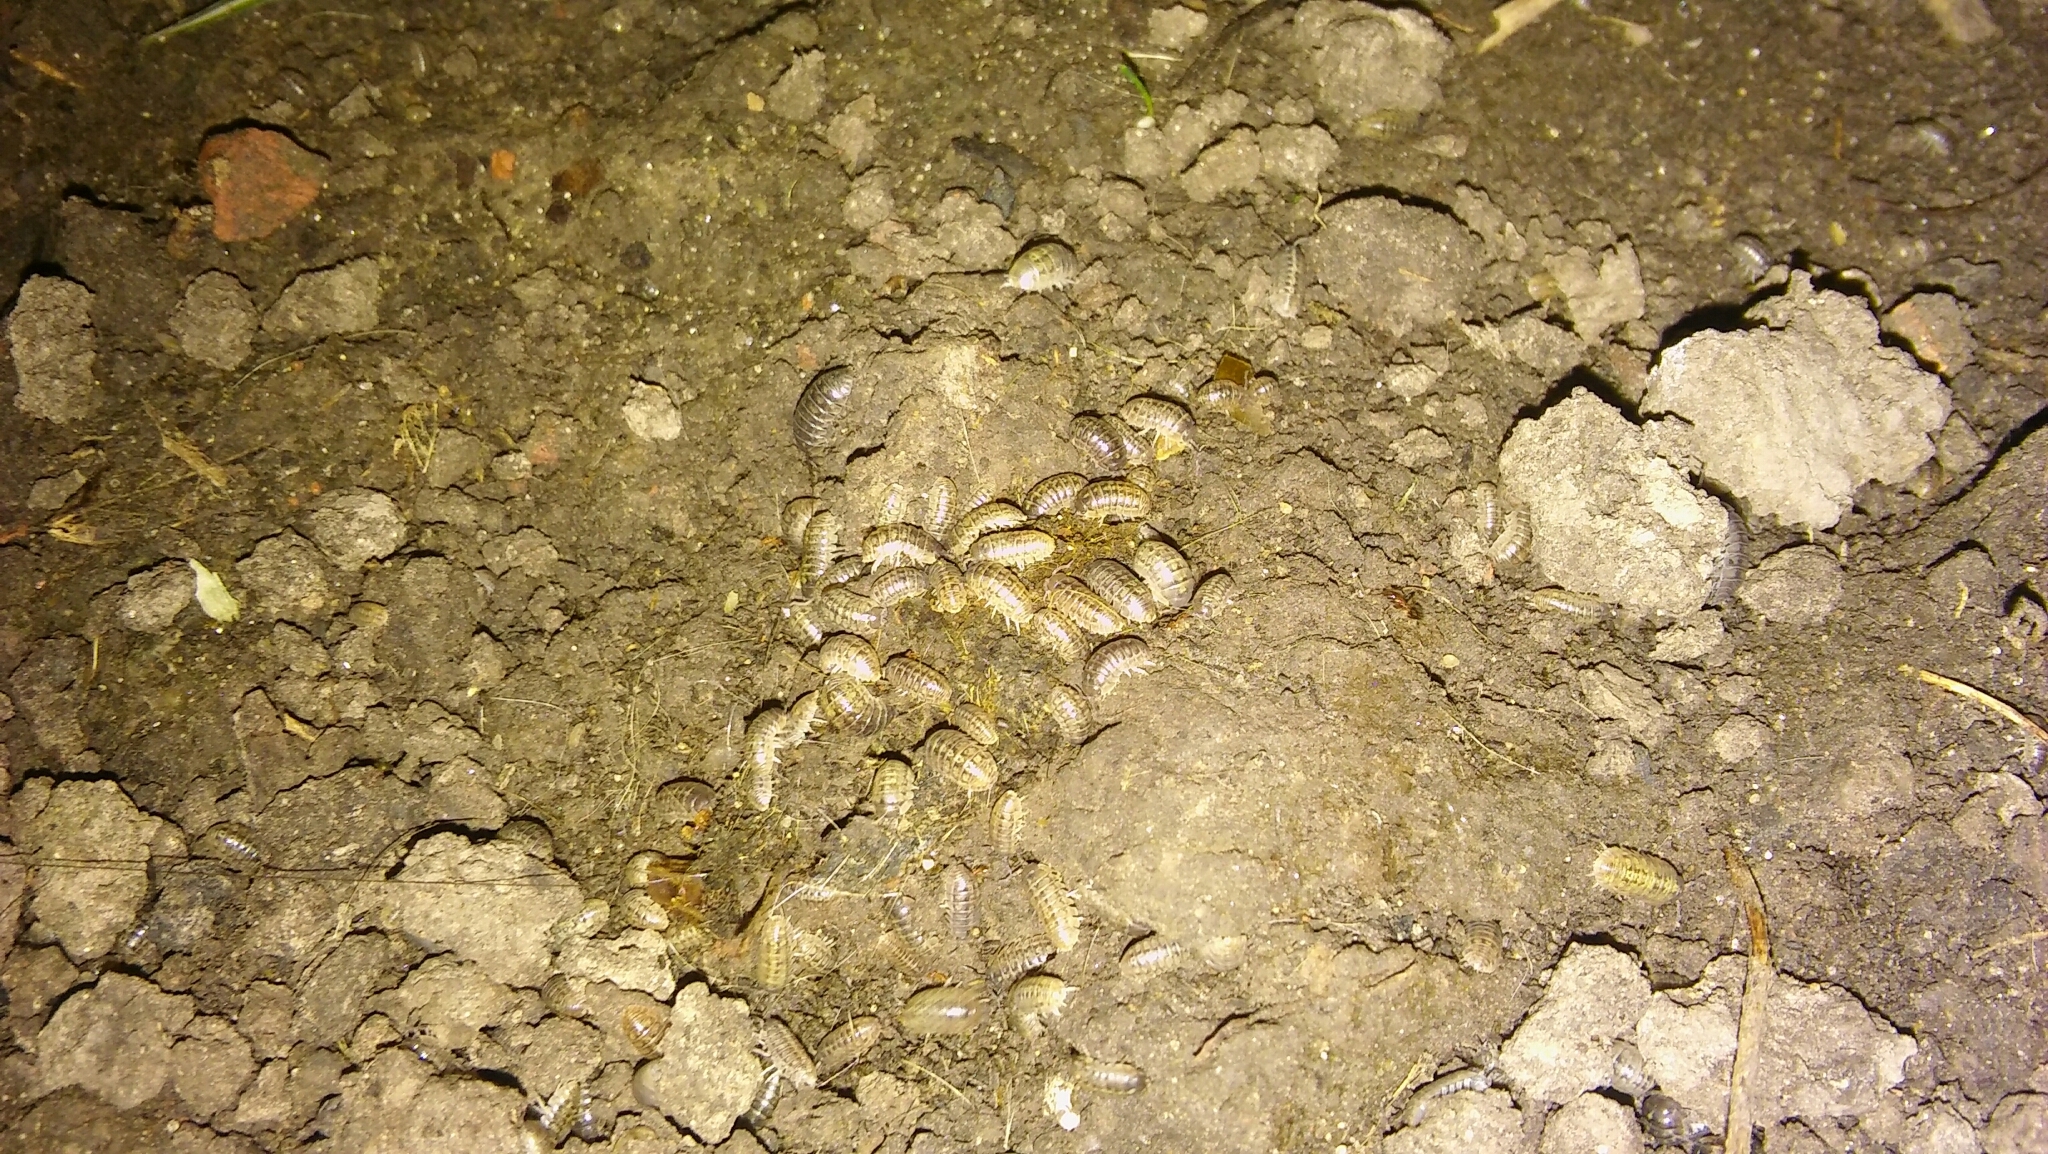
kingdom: Animalia
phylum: Arthropoda
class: Malacostraca
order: Isopoda
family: Armadillidiidae
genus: Armadillidium
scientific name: Armadillidium nasatum
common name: Isopod
